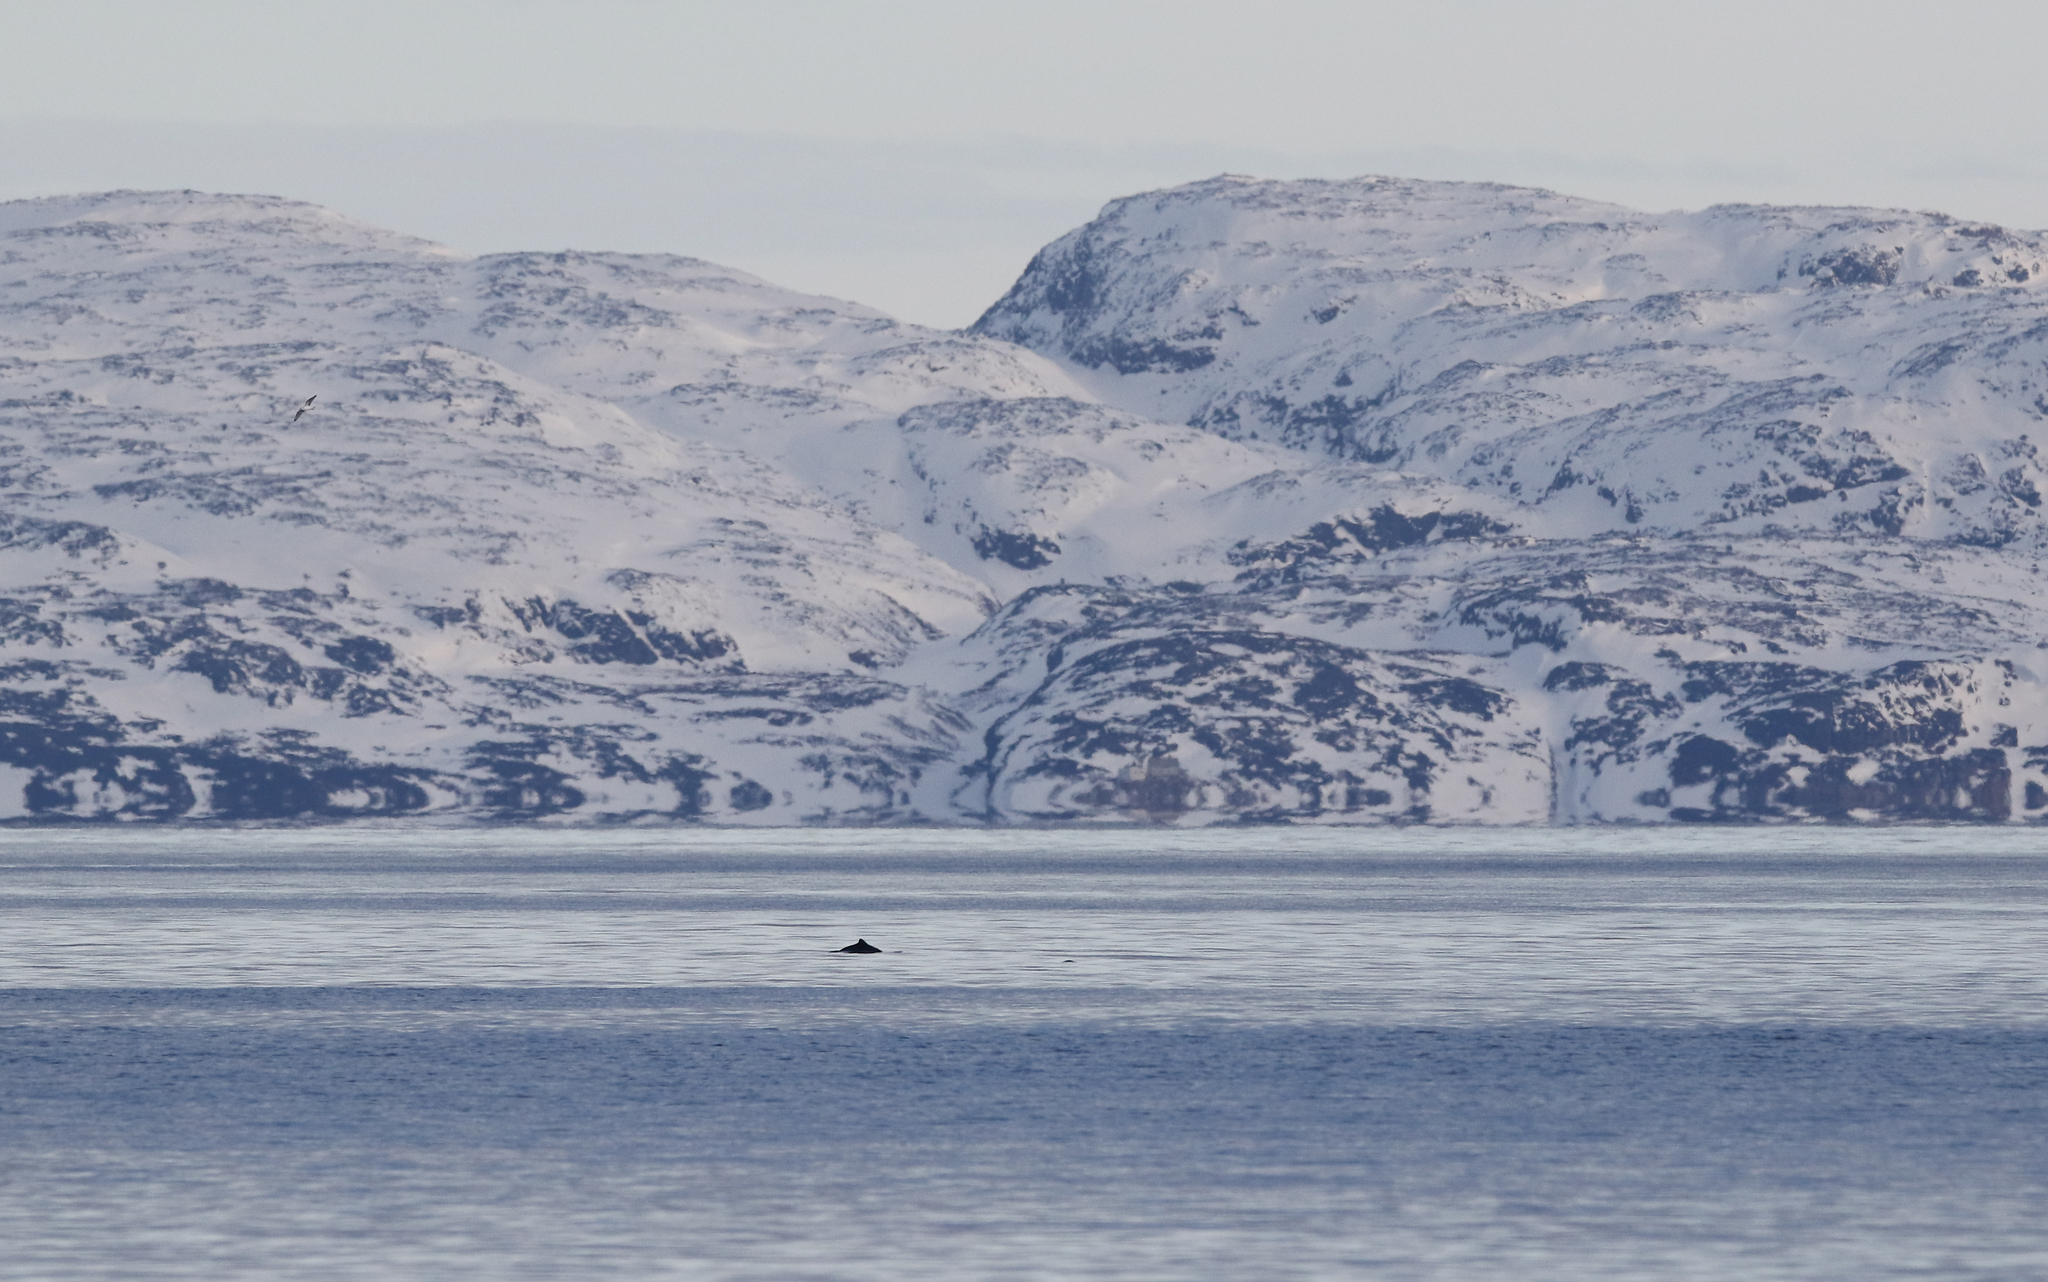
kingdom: Animalia
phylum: Chordata
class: Mammalia
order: Cetacea
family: Phocoenidae
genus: Phocoena
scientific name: Phocoena phocoena
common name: Harbor porpoise
